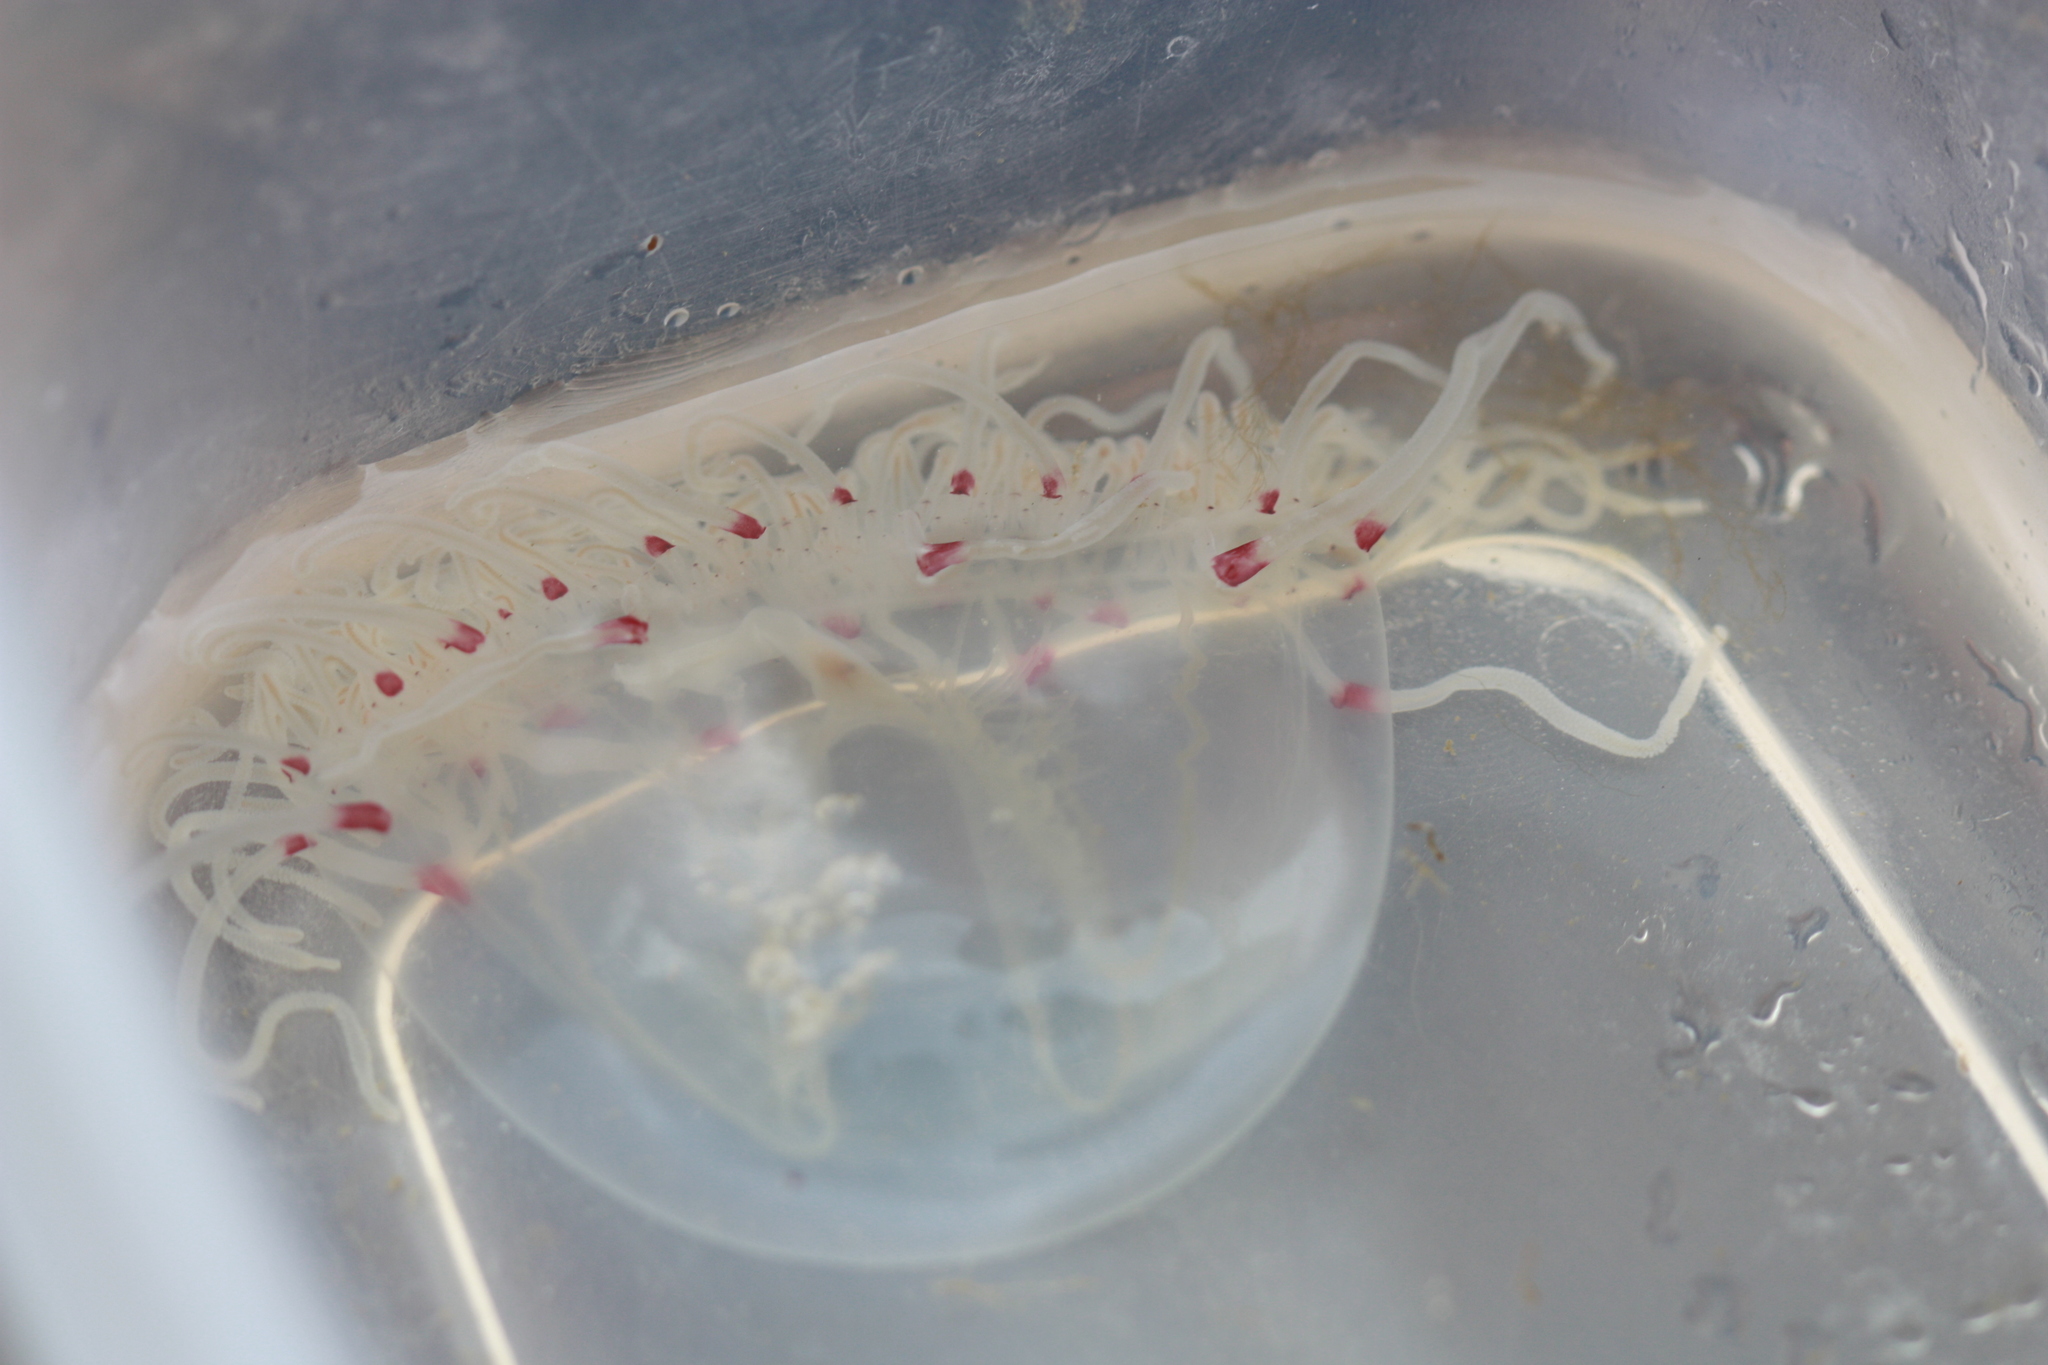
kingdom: Animalia
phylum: Cnidaria
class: Hydrozoa
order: Anthoathecata
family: Corynidae
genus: Scrippsia
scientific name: Scrippsia pacifica
